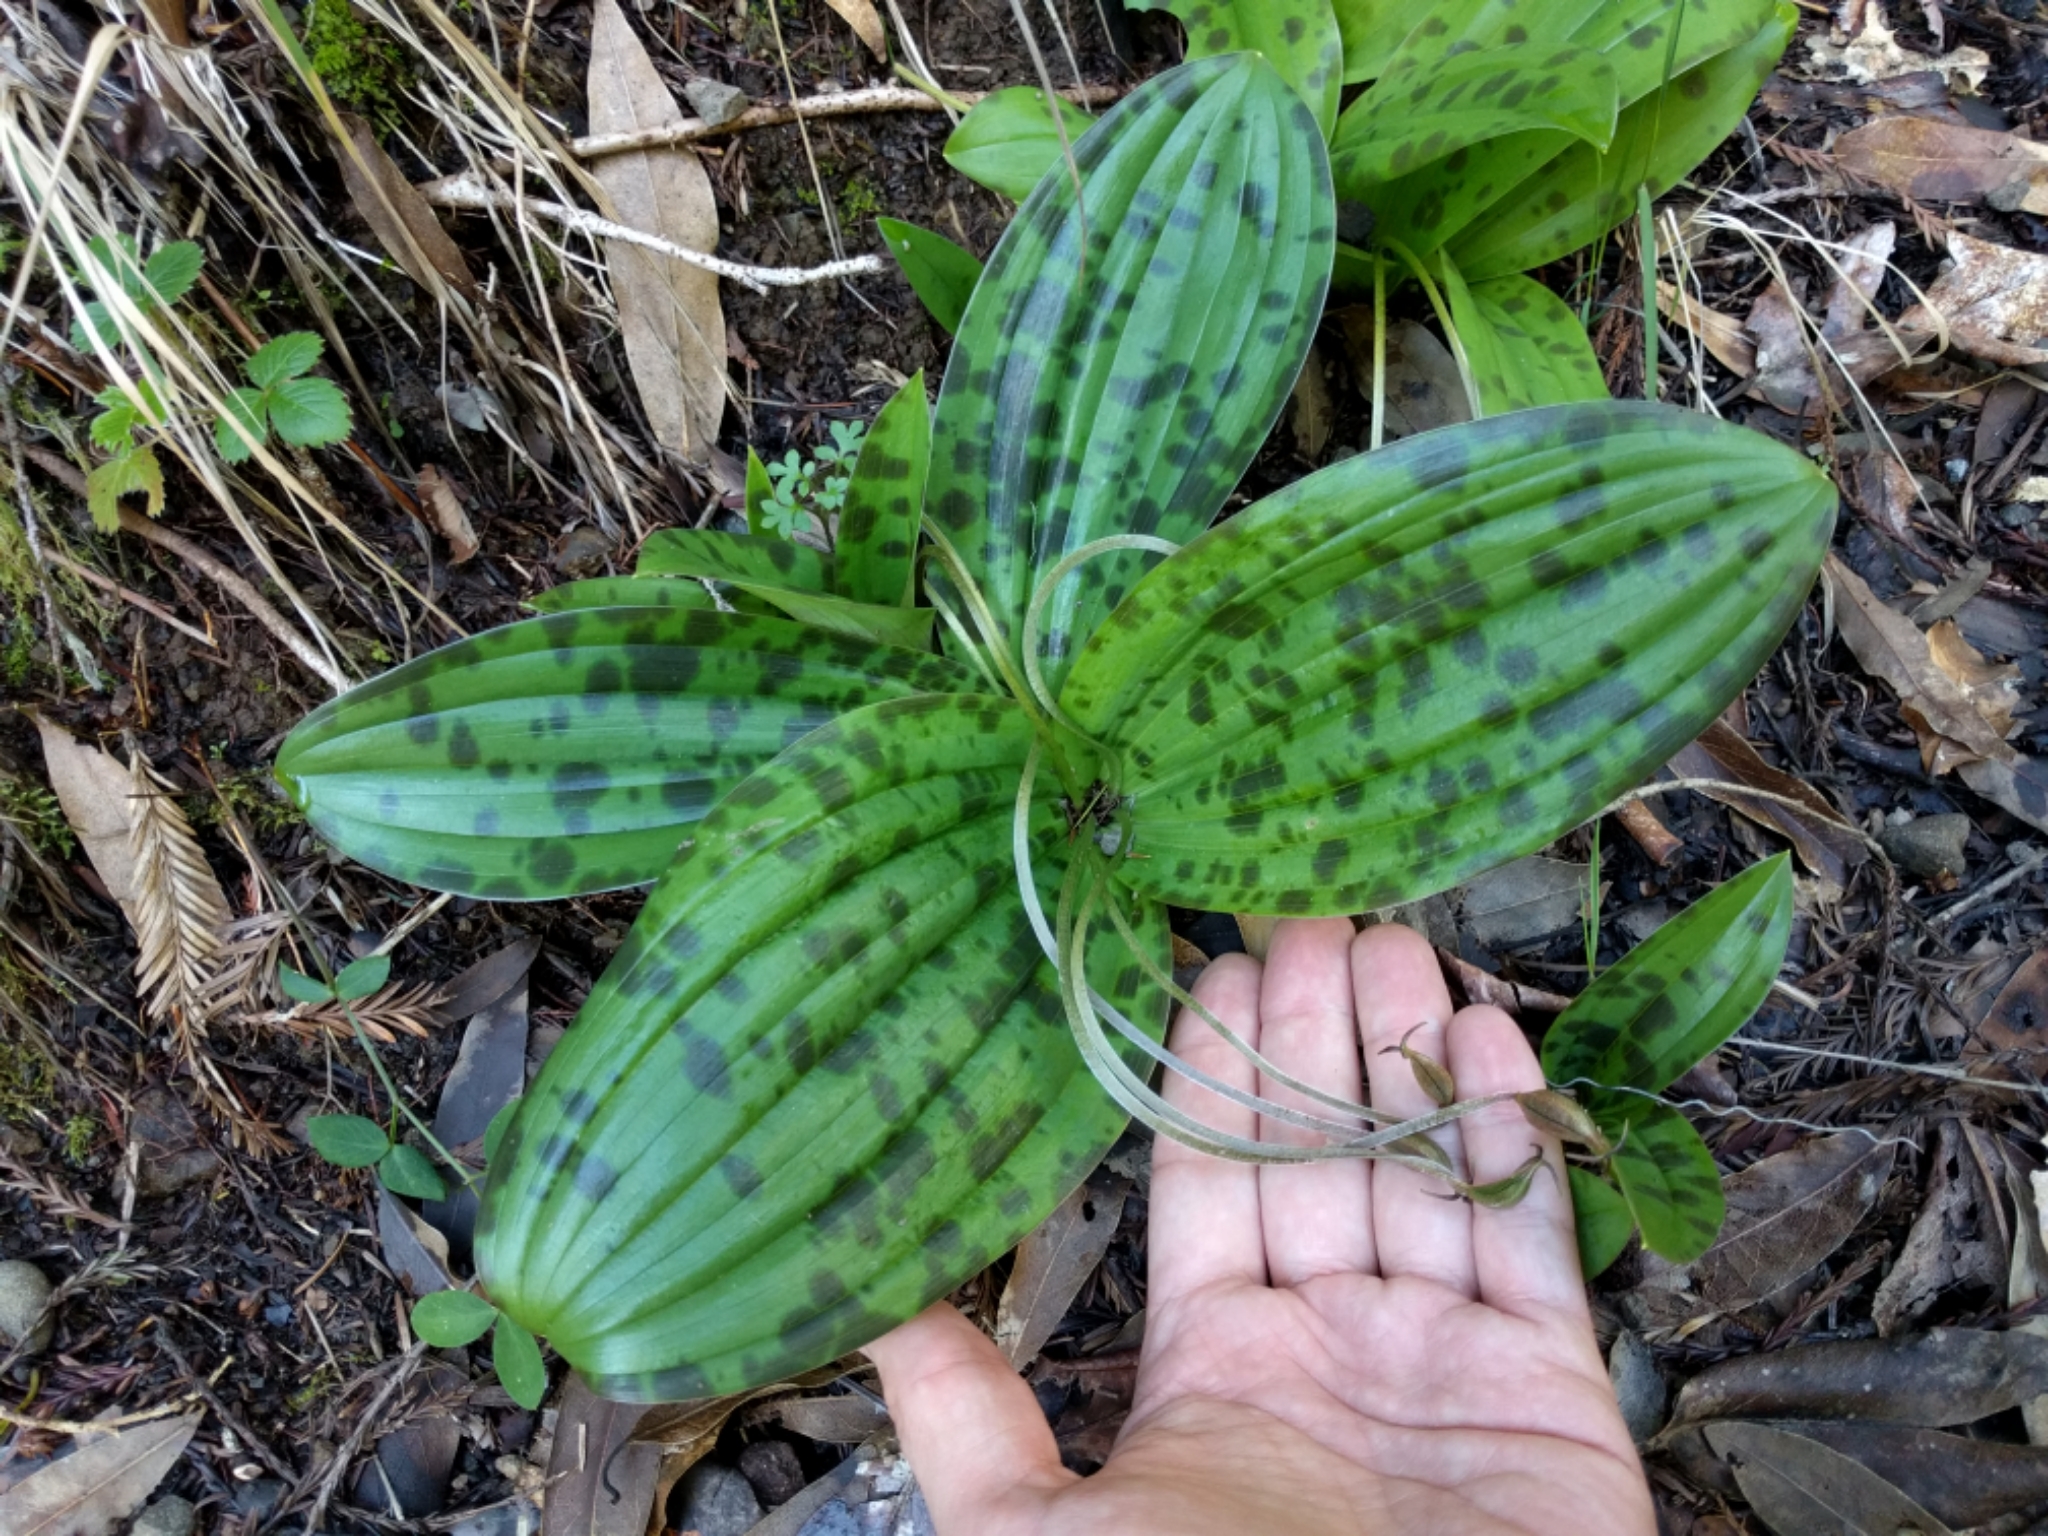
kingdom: Plantae
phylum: Tracheophyta
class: Liliopsida
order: Liliales
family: Liliaceae
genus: Scoliopus
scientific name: Scoliopus bigelovii
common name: Foetid adder's-tongue
